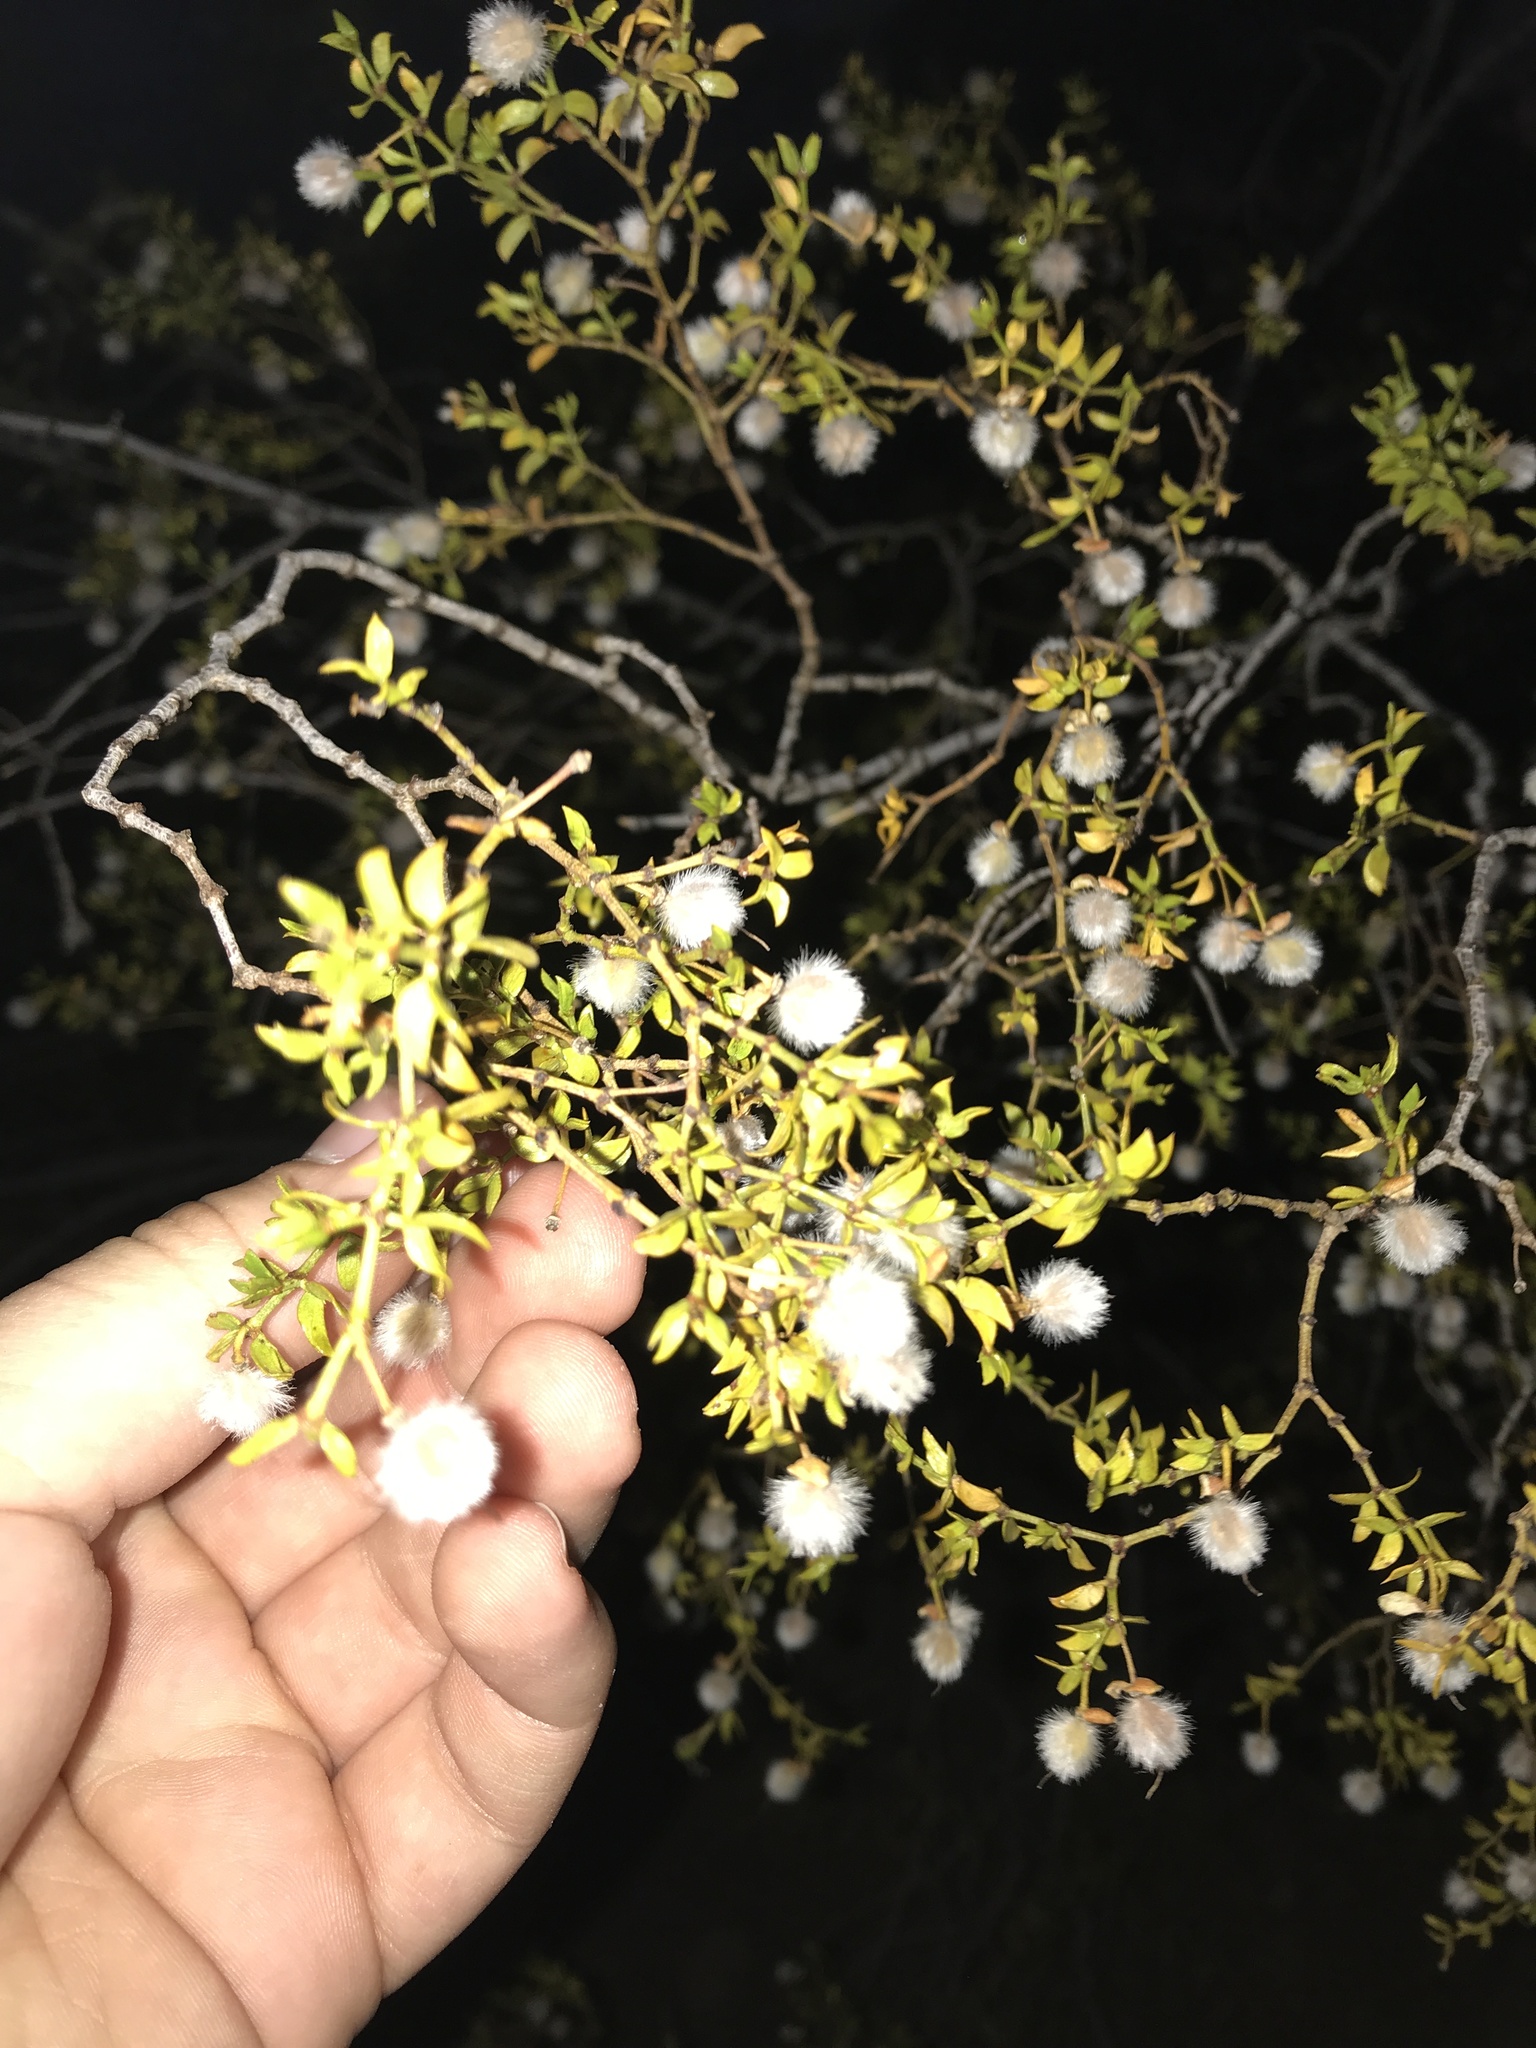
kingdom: Plantae
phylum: Tracheophyta
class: Magnoliopsida
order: Zygophyllales
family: Zygophyllaceae
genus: Larrea
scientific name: Larrea tridentata
